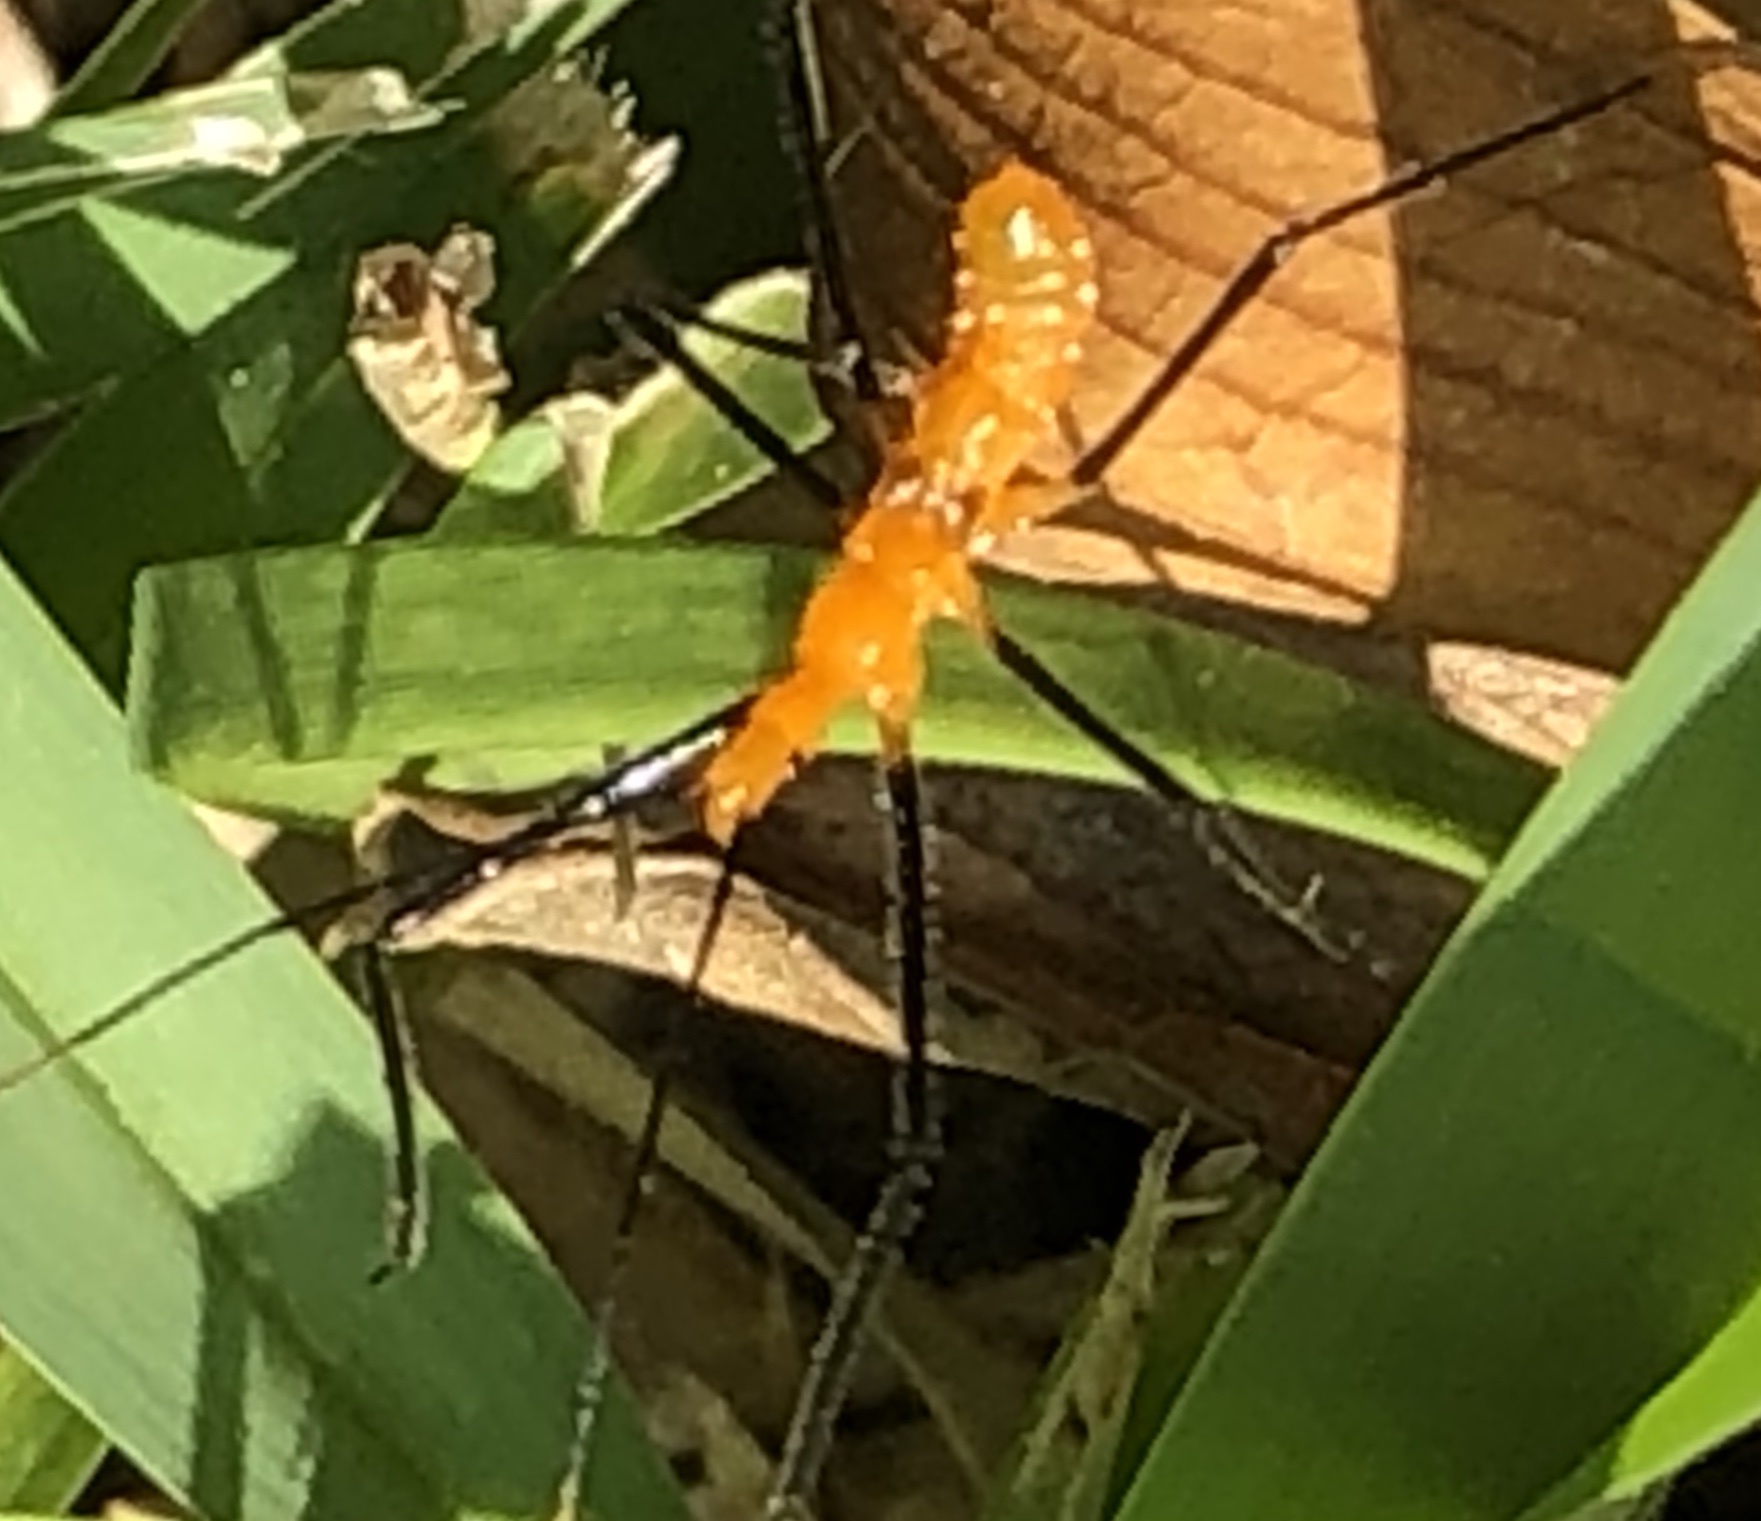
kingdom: Animalia
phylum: Arthropoda
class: Insecta
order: Hemiptera
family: Reduviidae
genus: Zelus
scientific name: Zelus longipes
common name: Milkweed assassin bug
